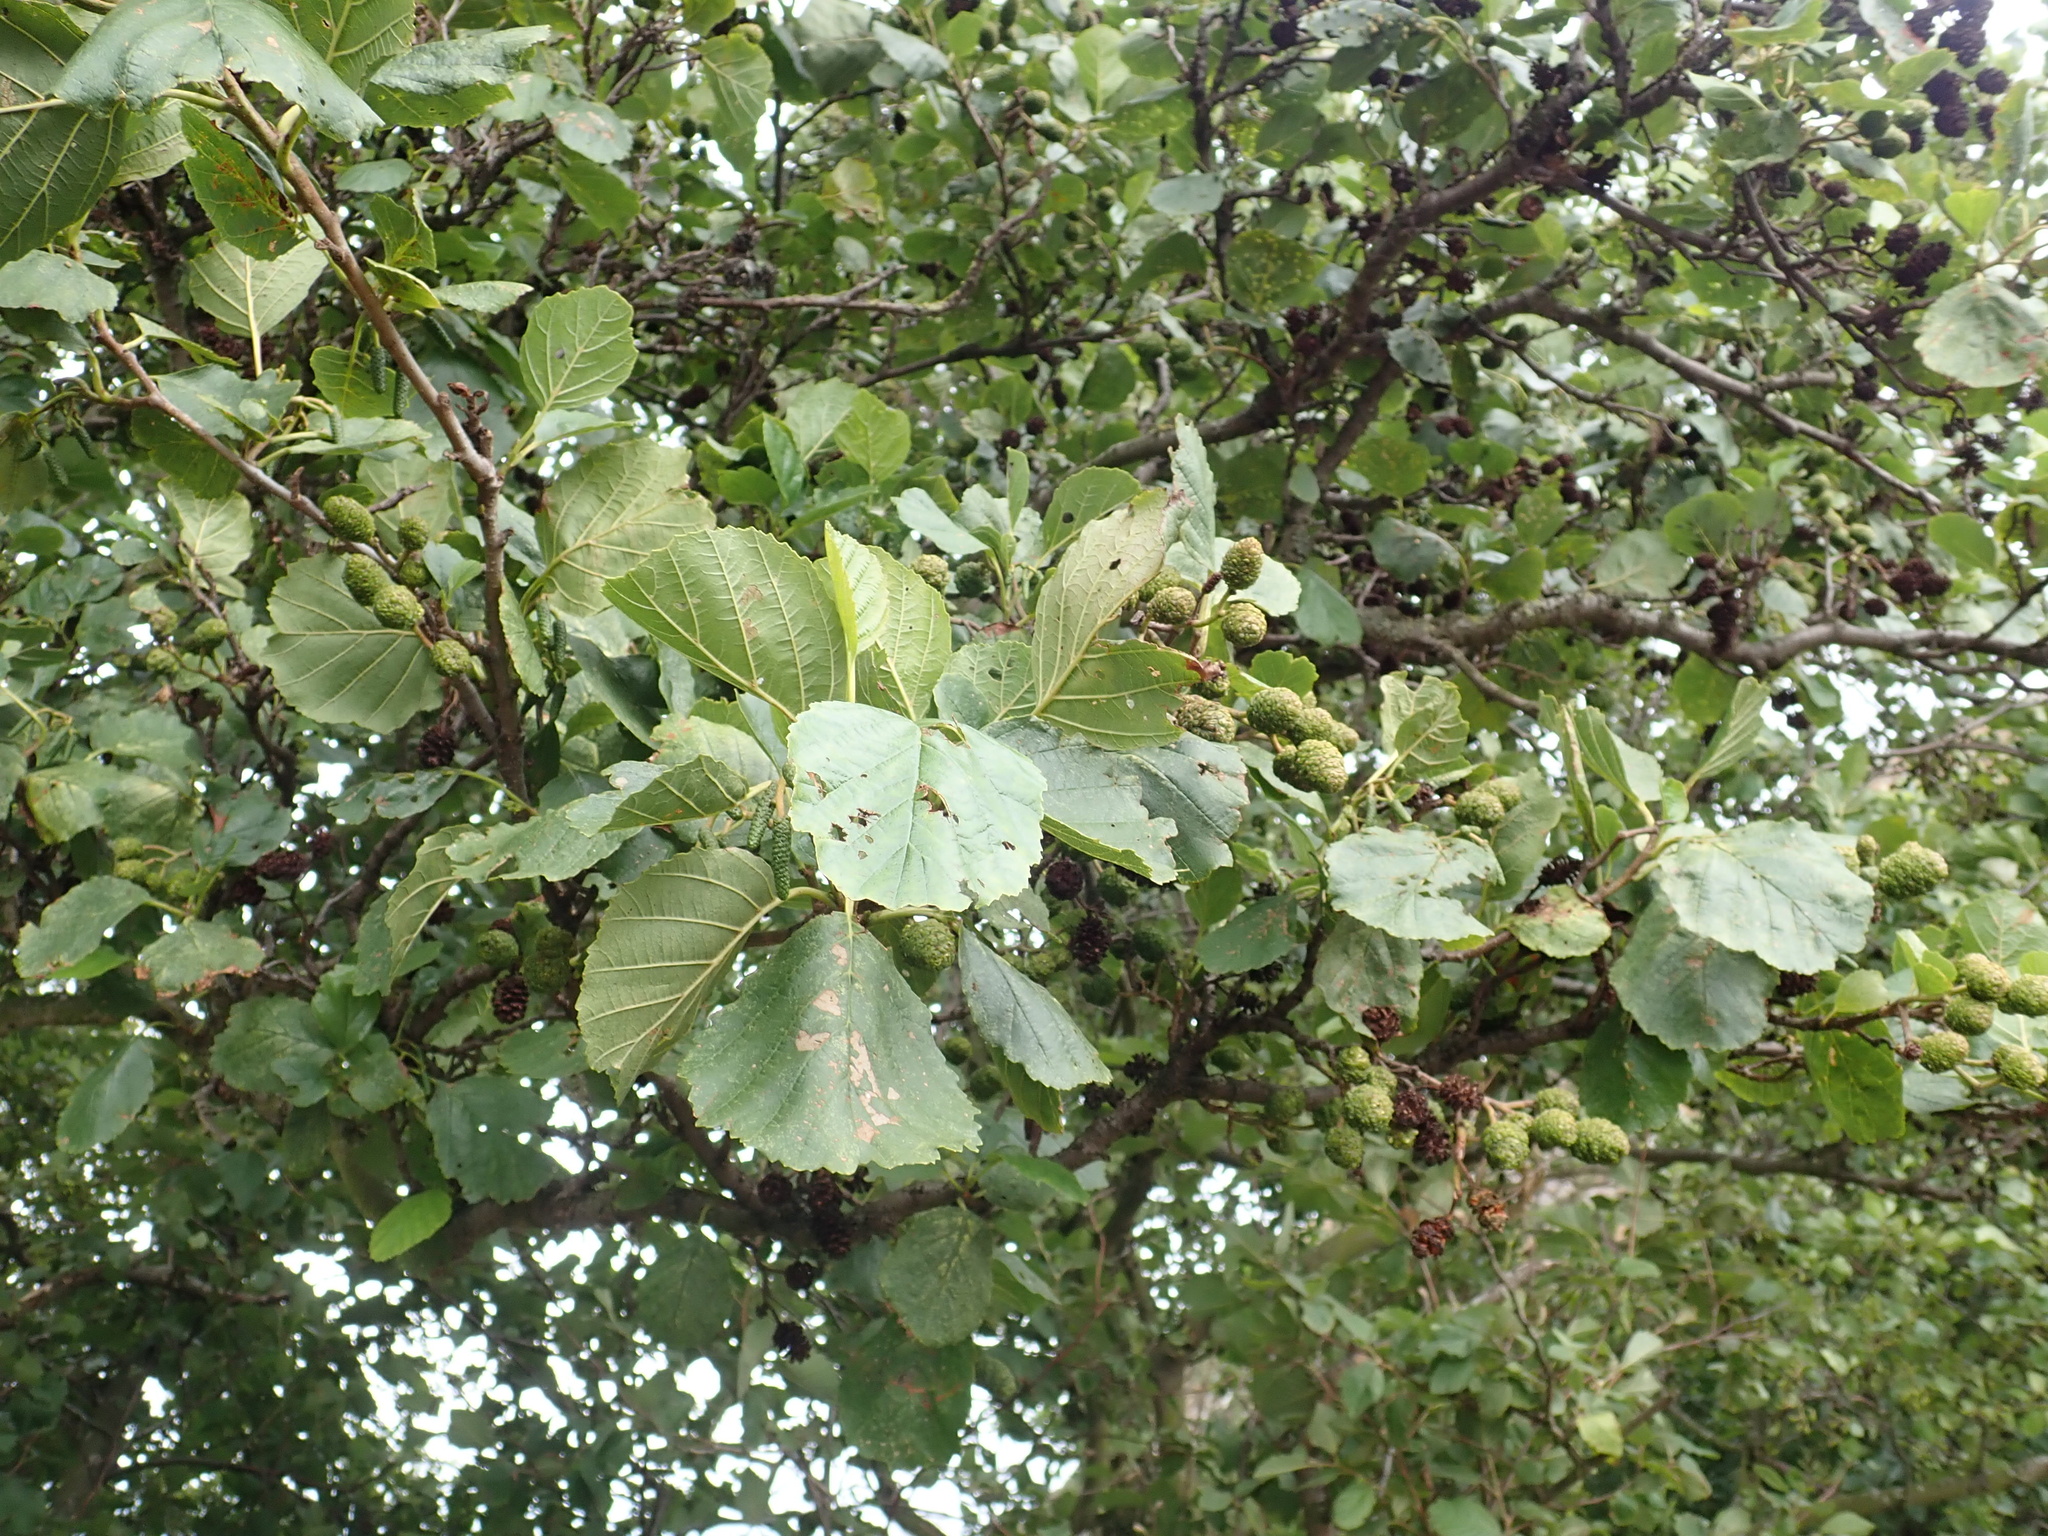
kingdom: Plantae
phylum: Tracheophyta
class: Magnoliopsida
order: Fagales
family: Betulaceae
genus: Alnus
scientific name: Alnus glutinosa
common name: Black alder
